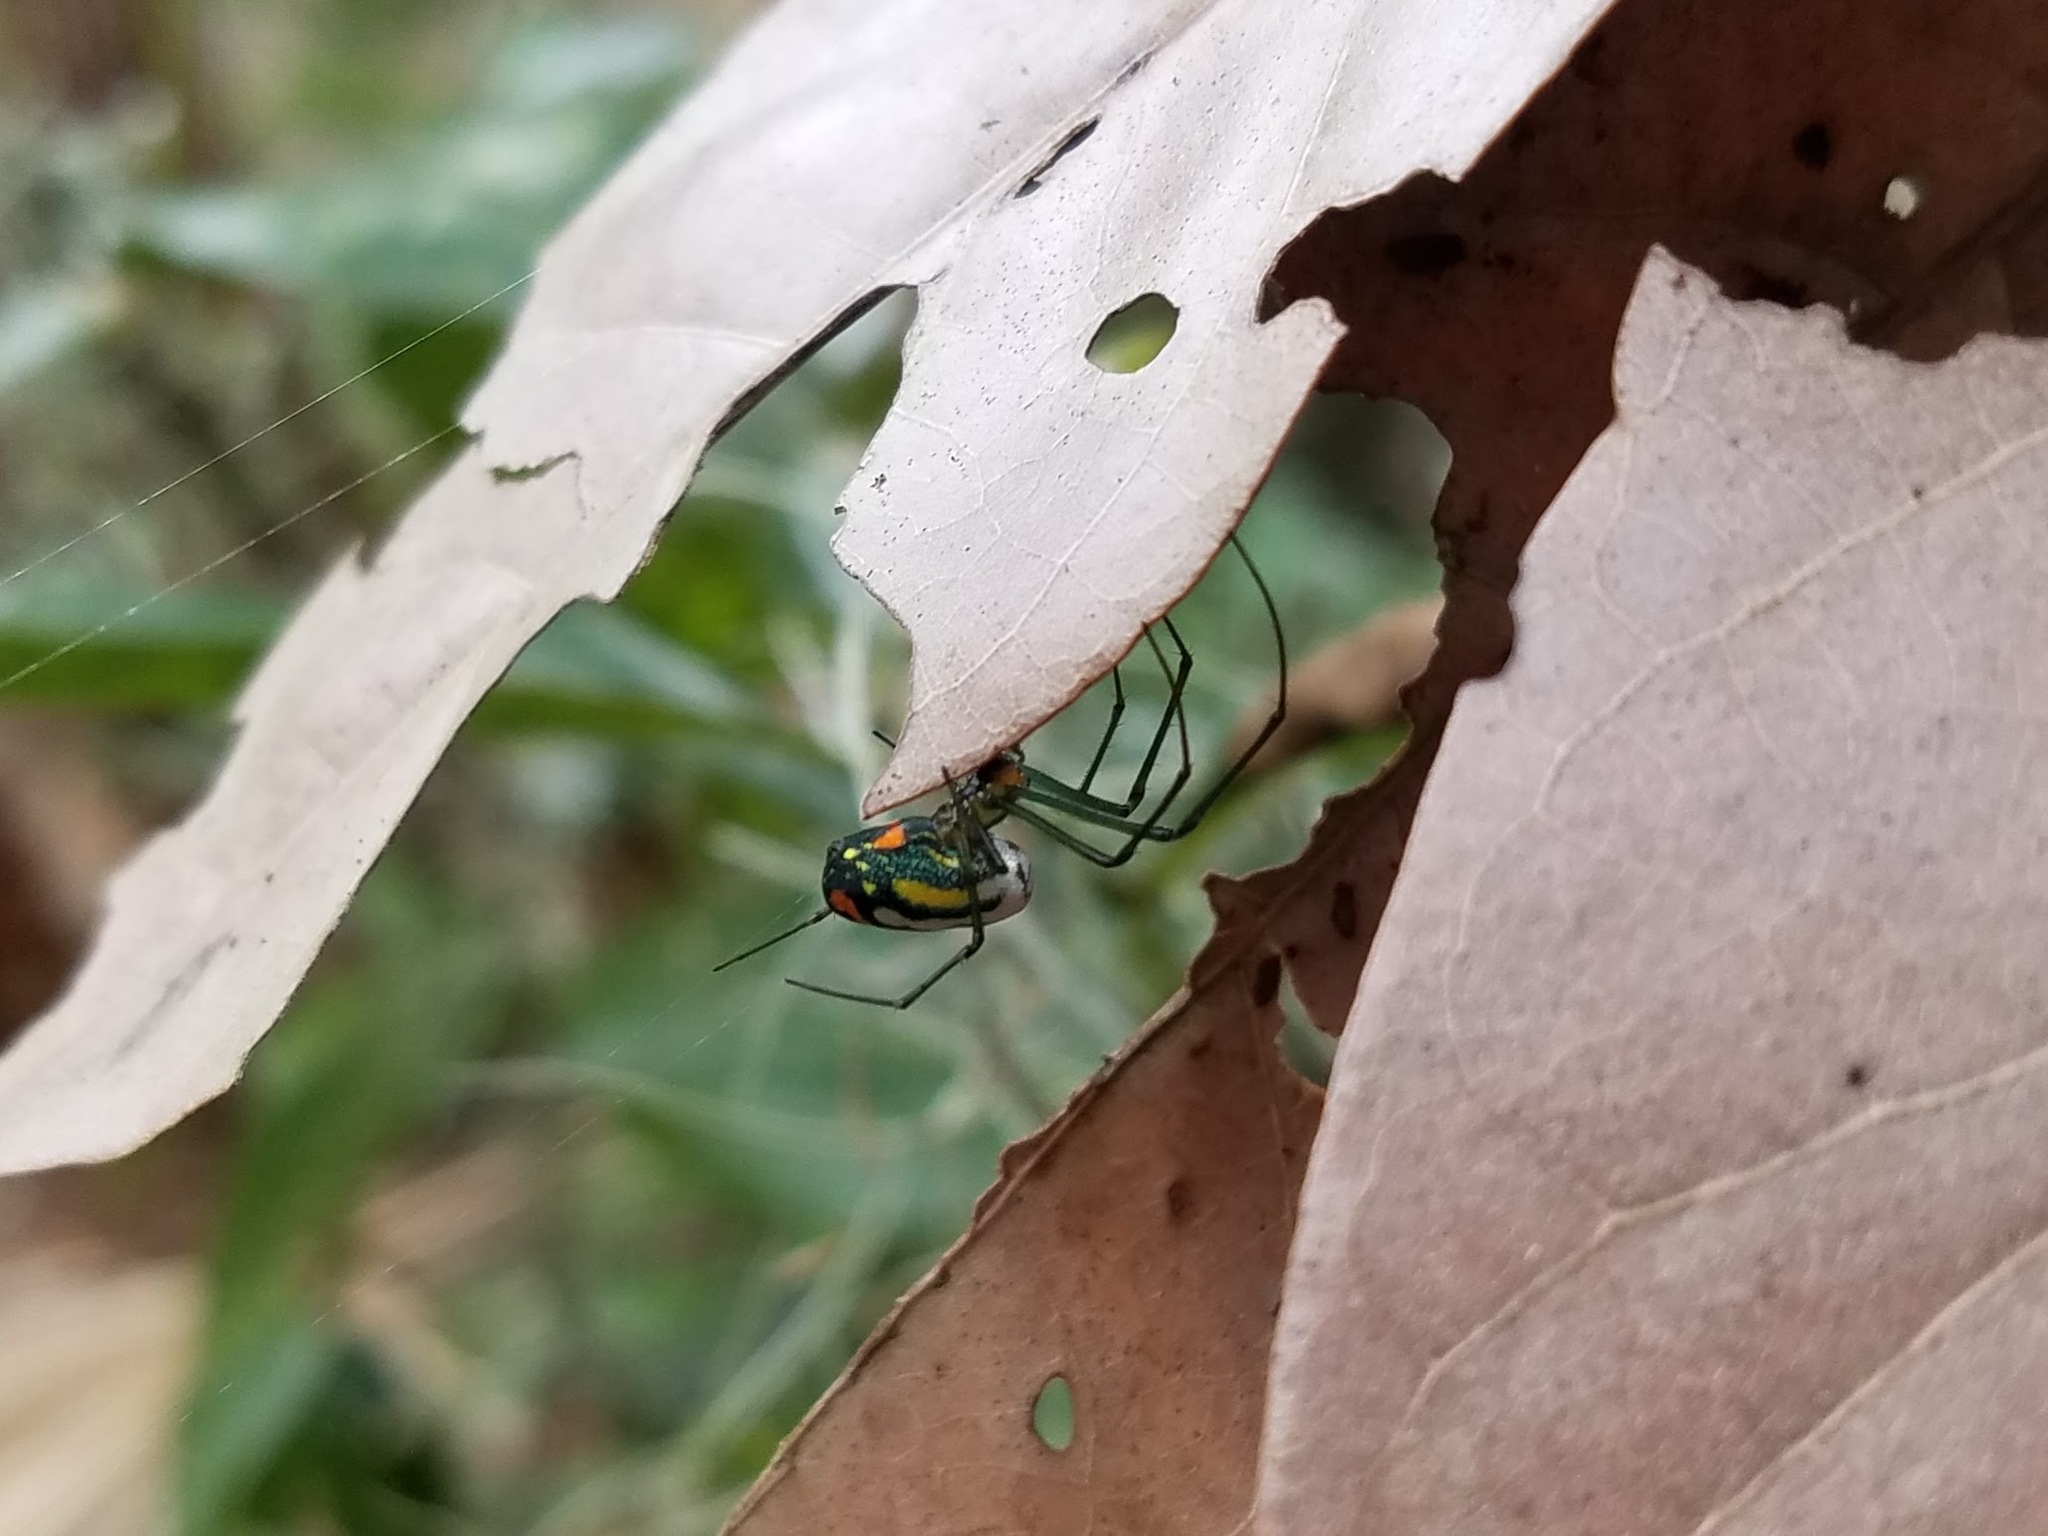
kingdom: Animalia
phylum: Arthropoda
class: Arachnida
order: Araneae
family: Tetragnathidae
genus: Leucauge
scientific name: Leucauge argyrobapta
